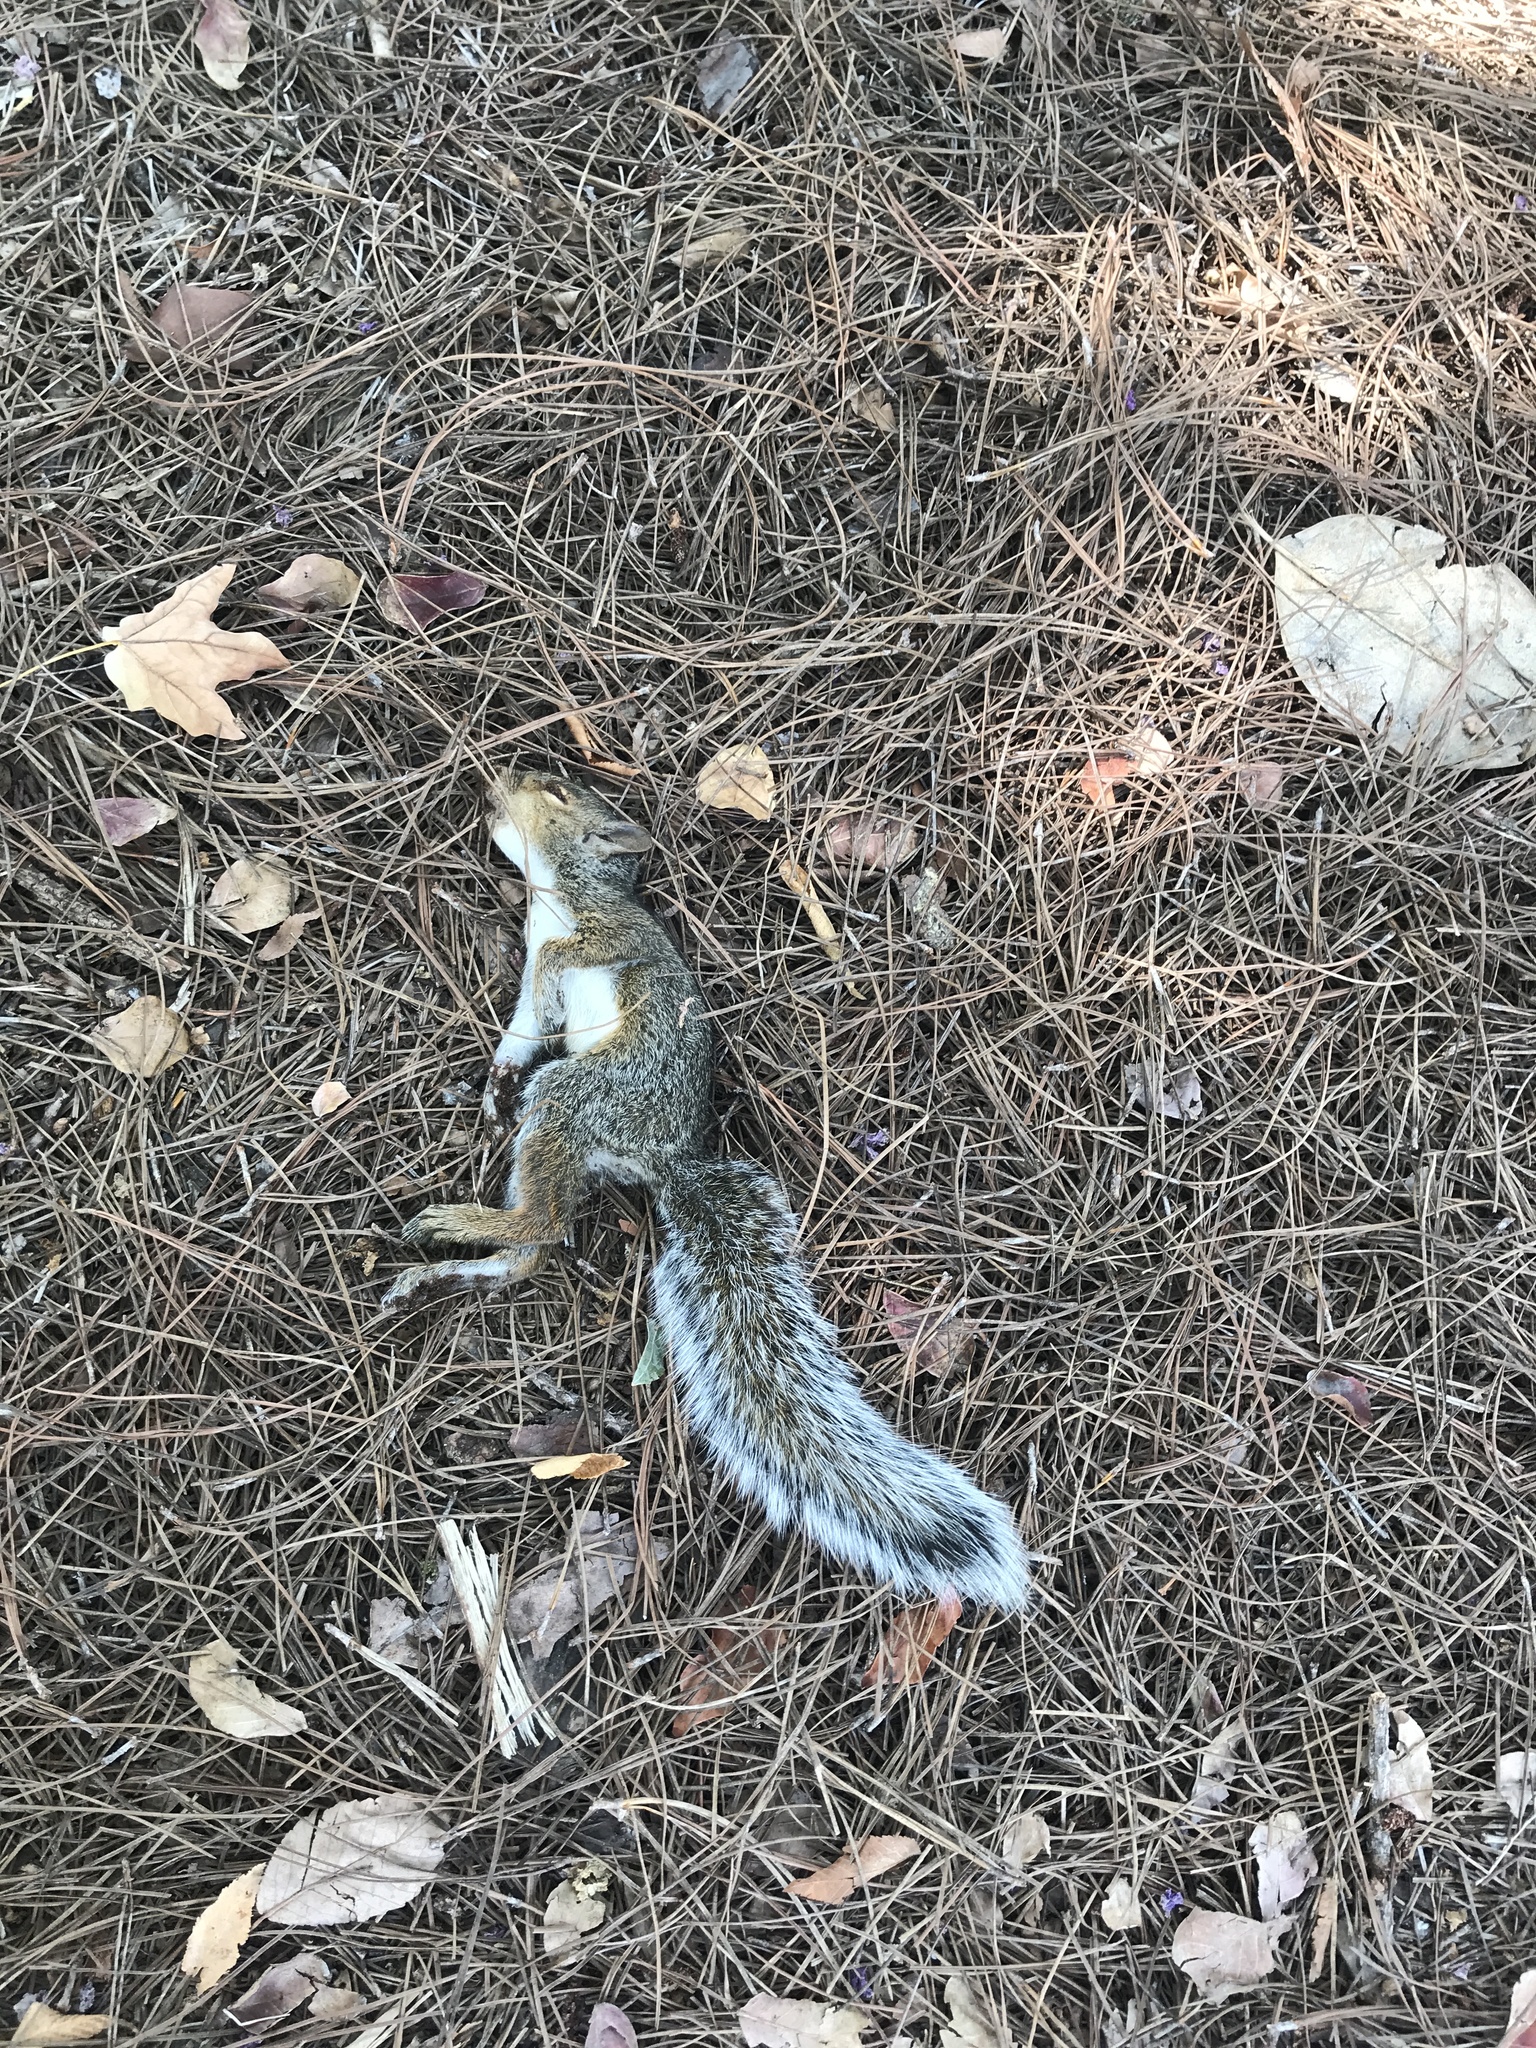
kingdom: Animalia
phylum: Chordata
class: Mammalia
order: Rodentia
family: Sciuridae
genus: Sciurus
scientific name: Sciurus carolinensis
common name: Eastern gray squirrel
